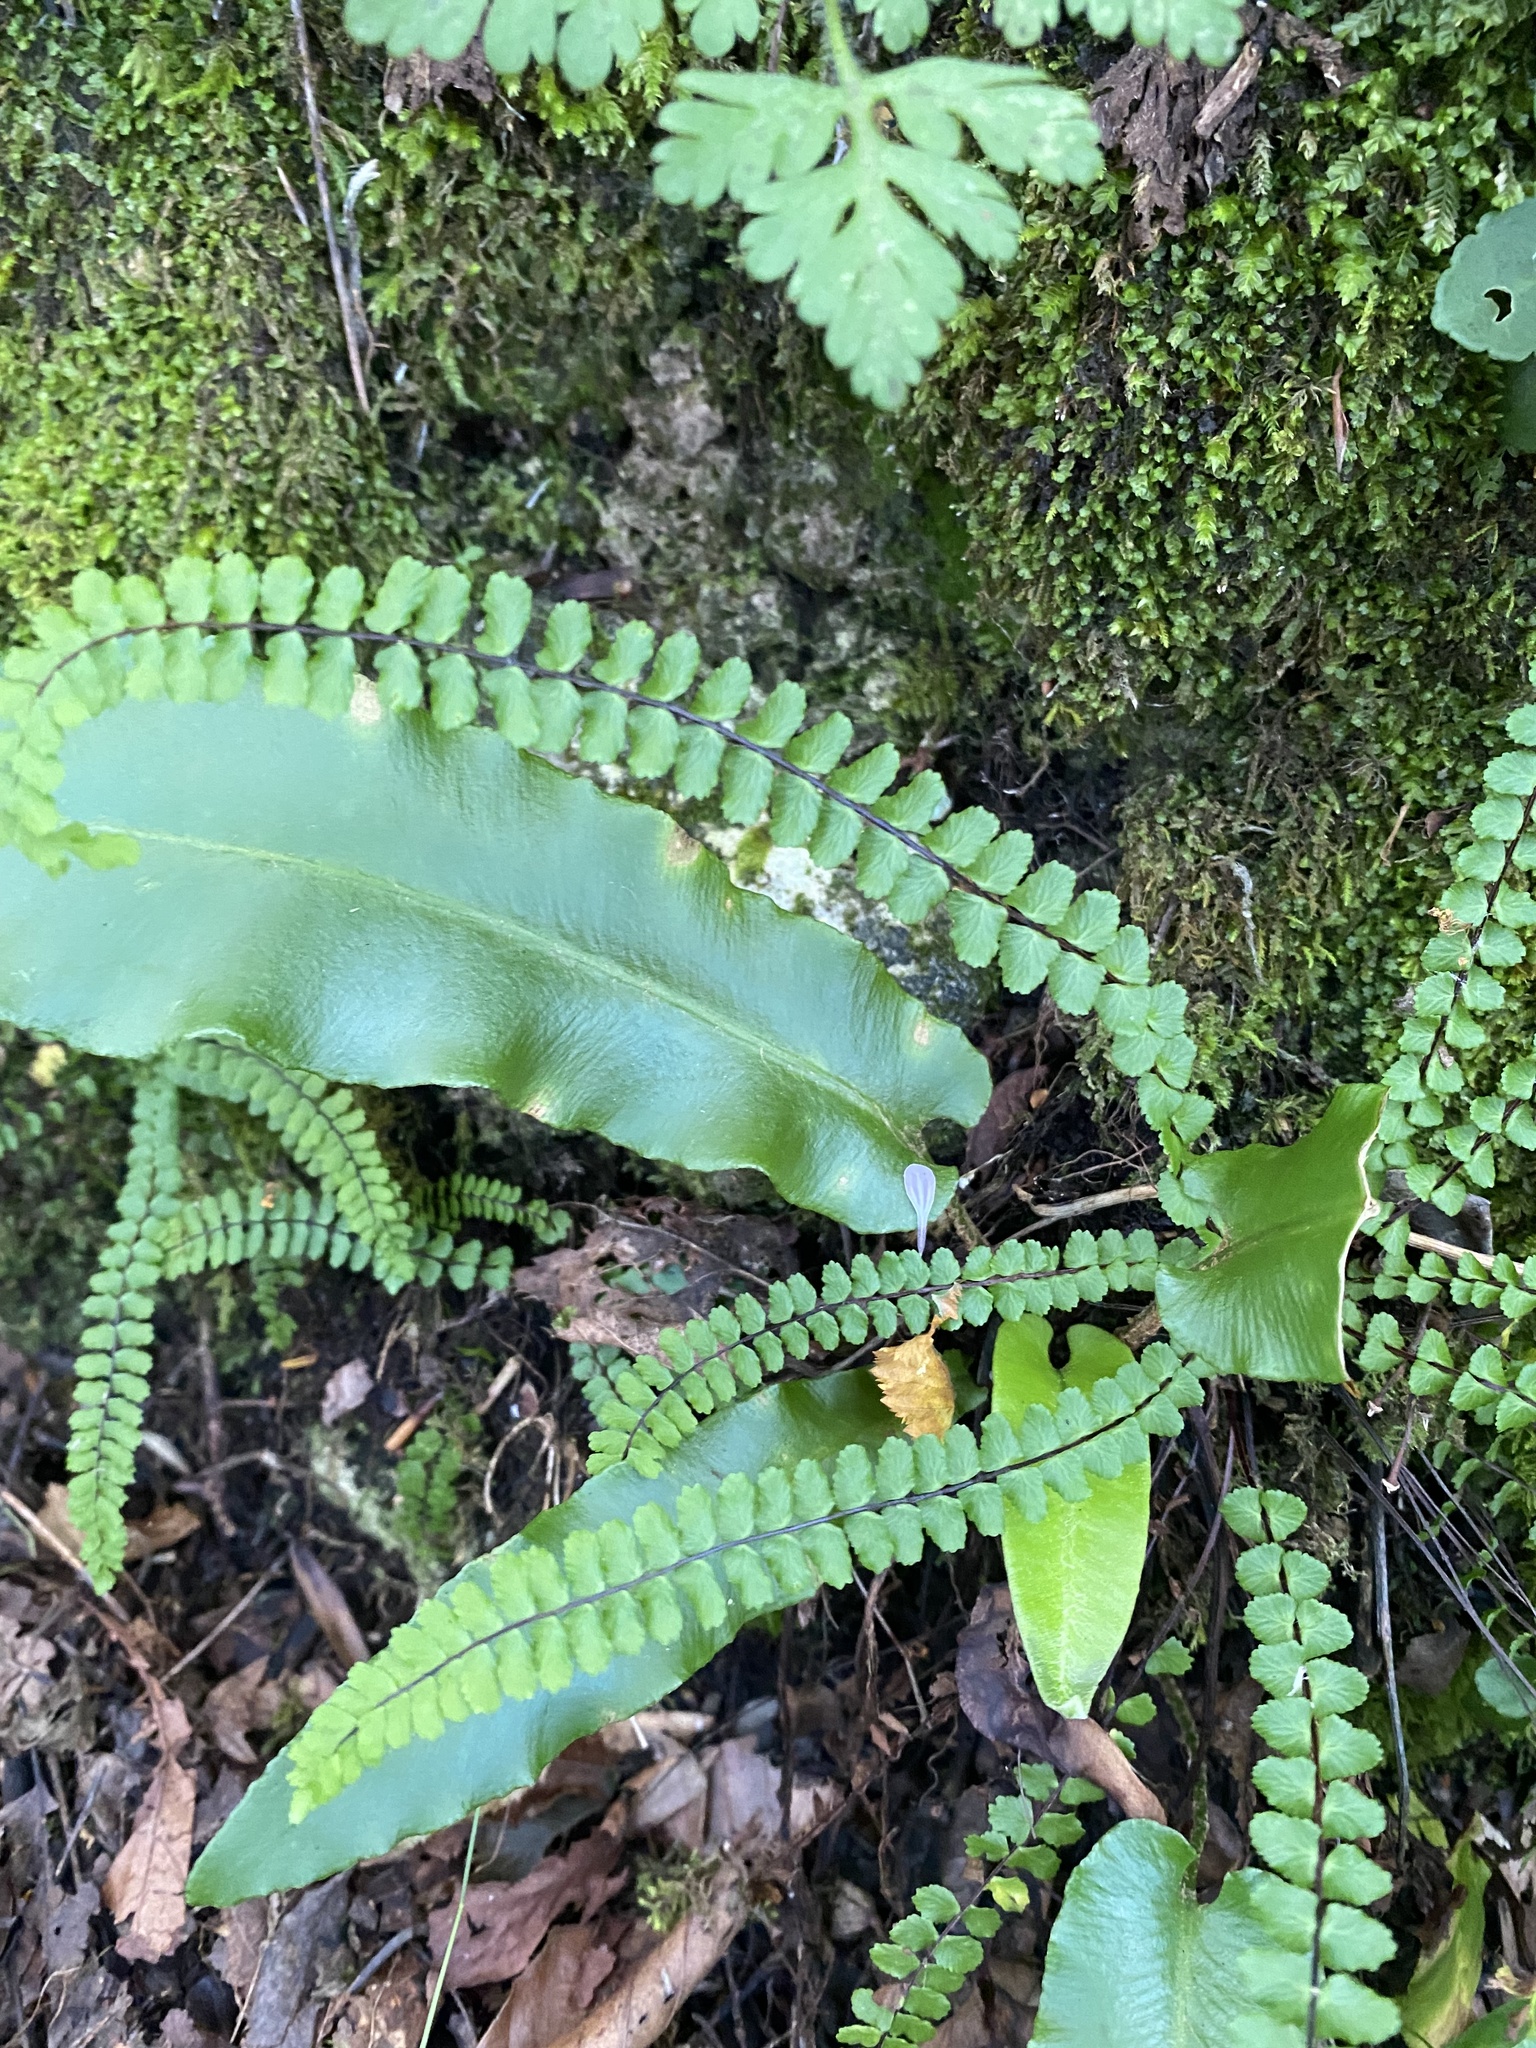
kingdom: Plantae
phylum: Tracheophyta
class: Polypodiopsida
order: Polypodiales
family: Aspleniaceae
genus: Asplenium
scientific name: Asplenium trichomanes
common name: Maidenhair spleenwort
